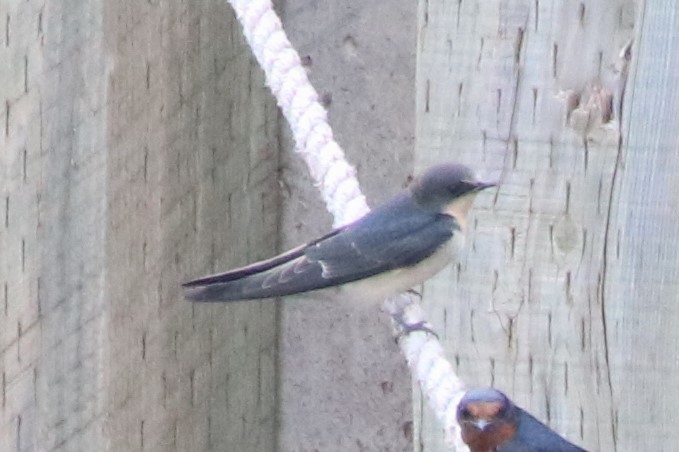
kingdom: Animalia
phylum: Chordata
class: Aves
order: Passeriformes
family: Hirundinidae
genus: Hirundo
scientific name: Hirundo rustica
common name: Barn swallow
